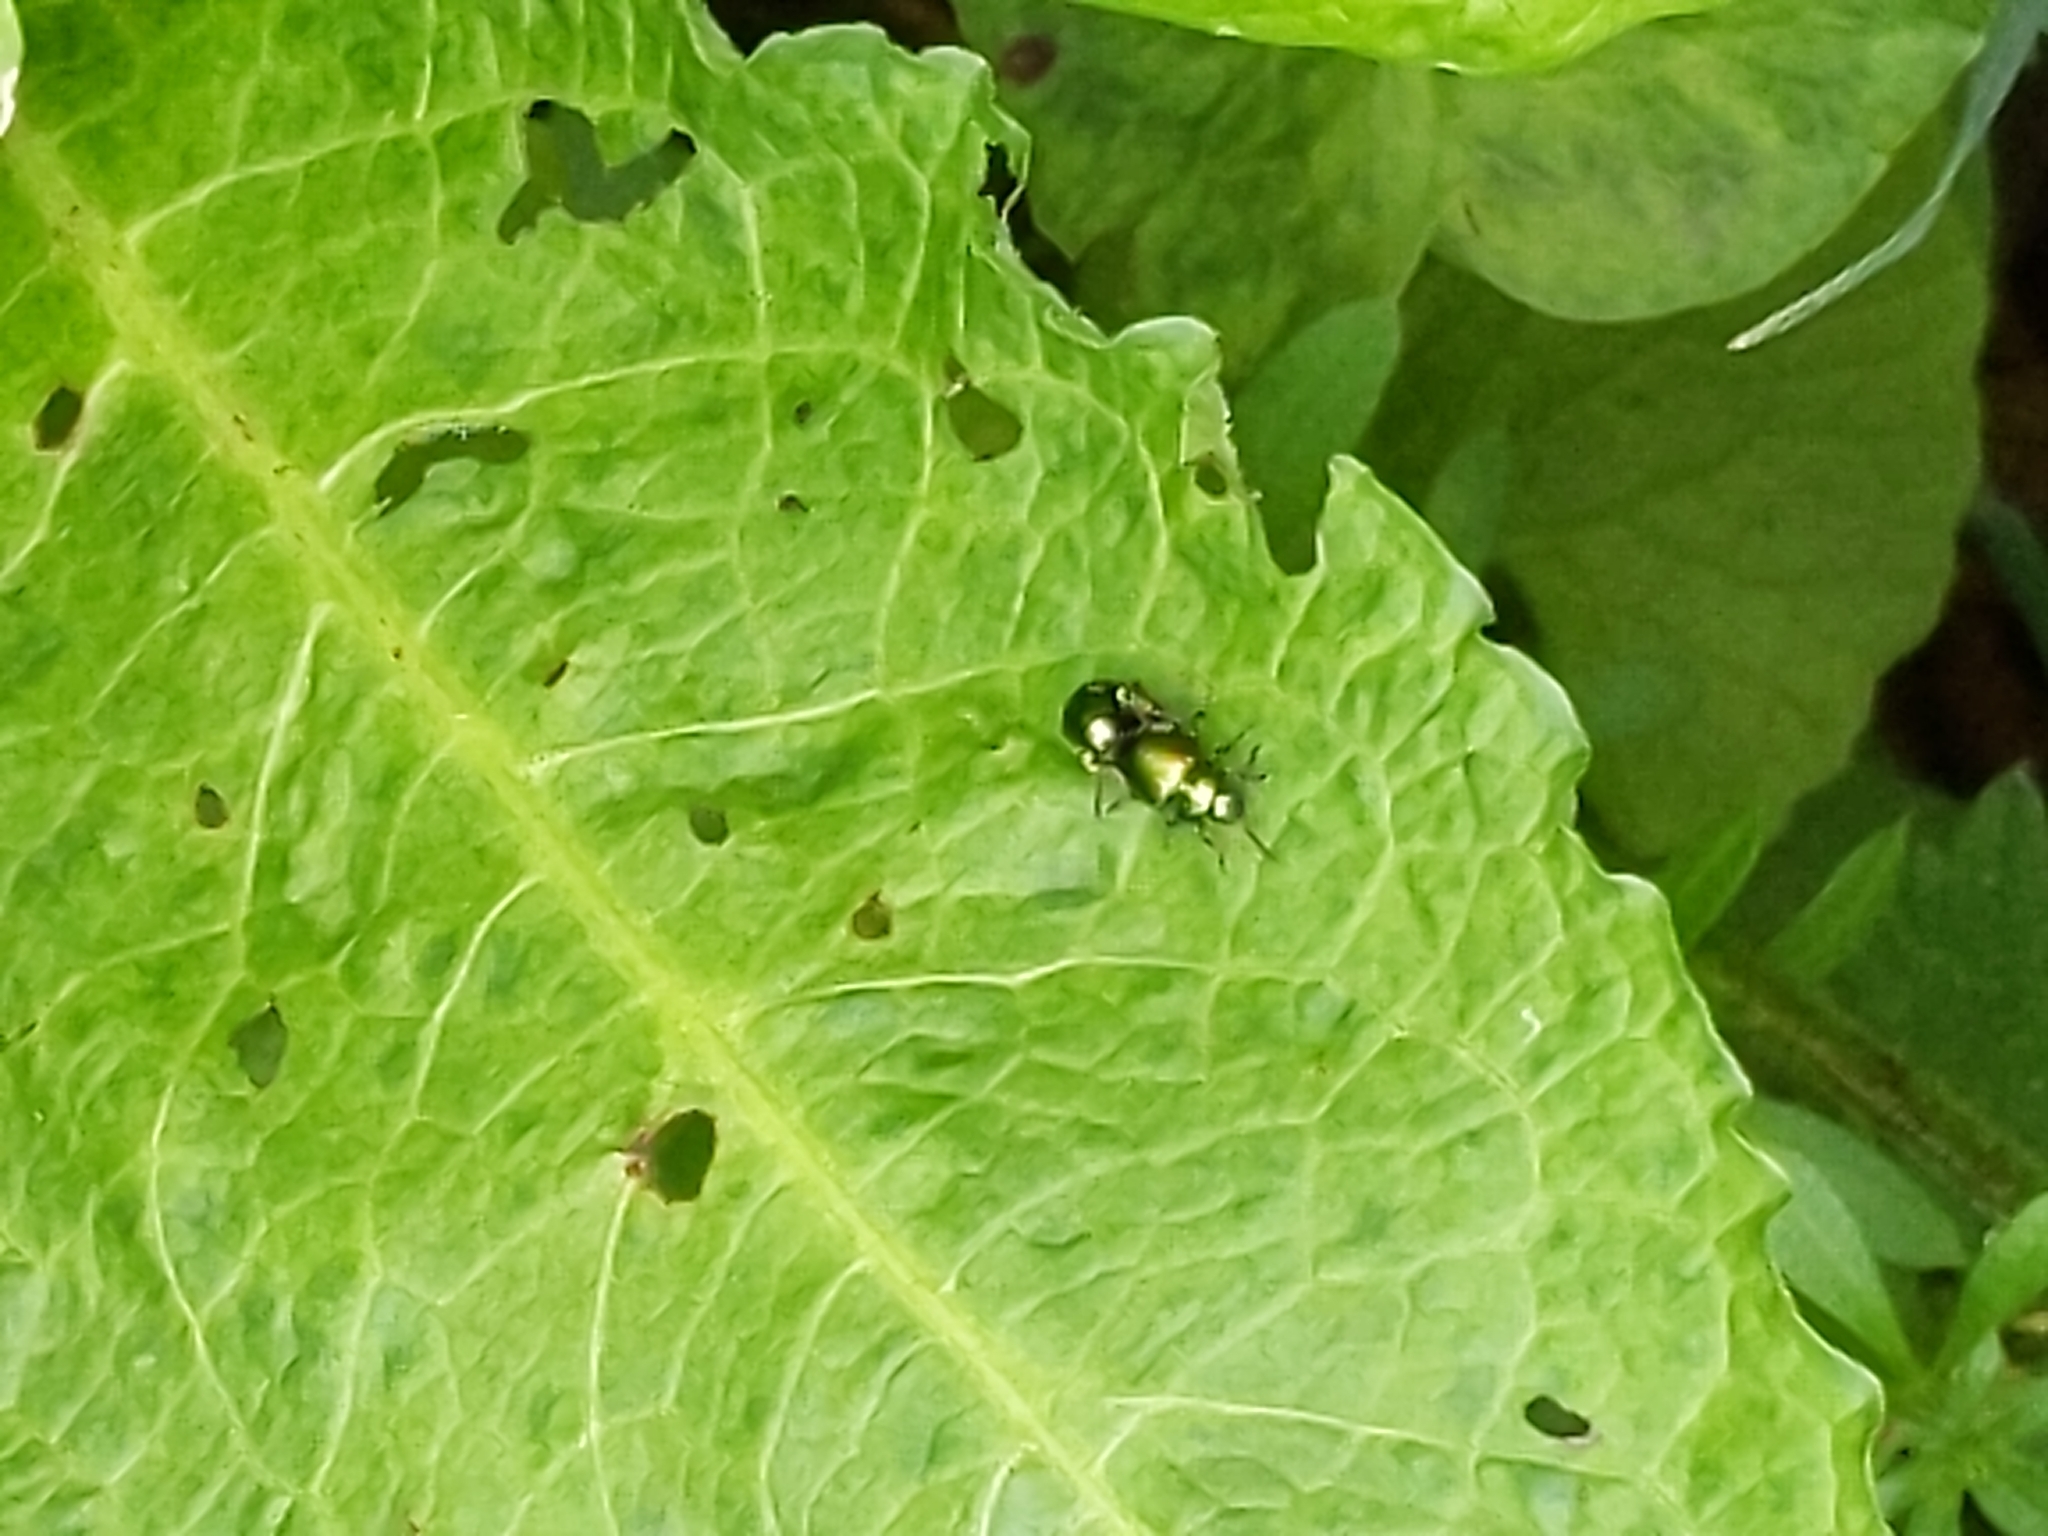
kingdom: Animalia
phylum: Arthropoda
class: Insecta
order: Coleoptera
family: Chrysomelidae
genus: Gastrophysa
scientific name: Gastrophysa viridula
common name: Green dock beetle
